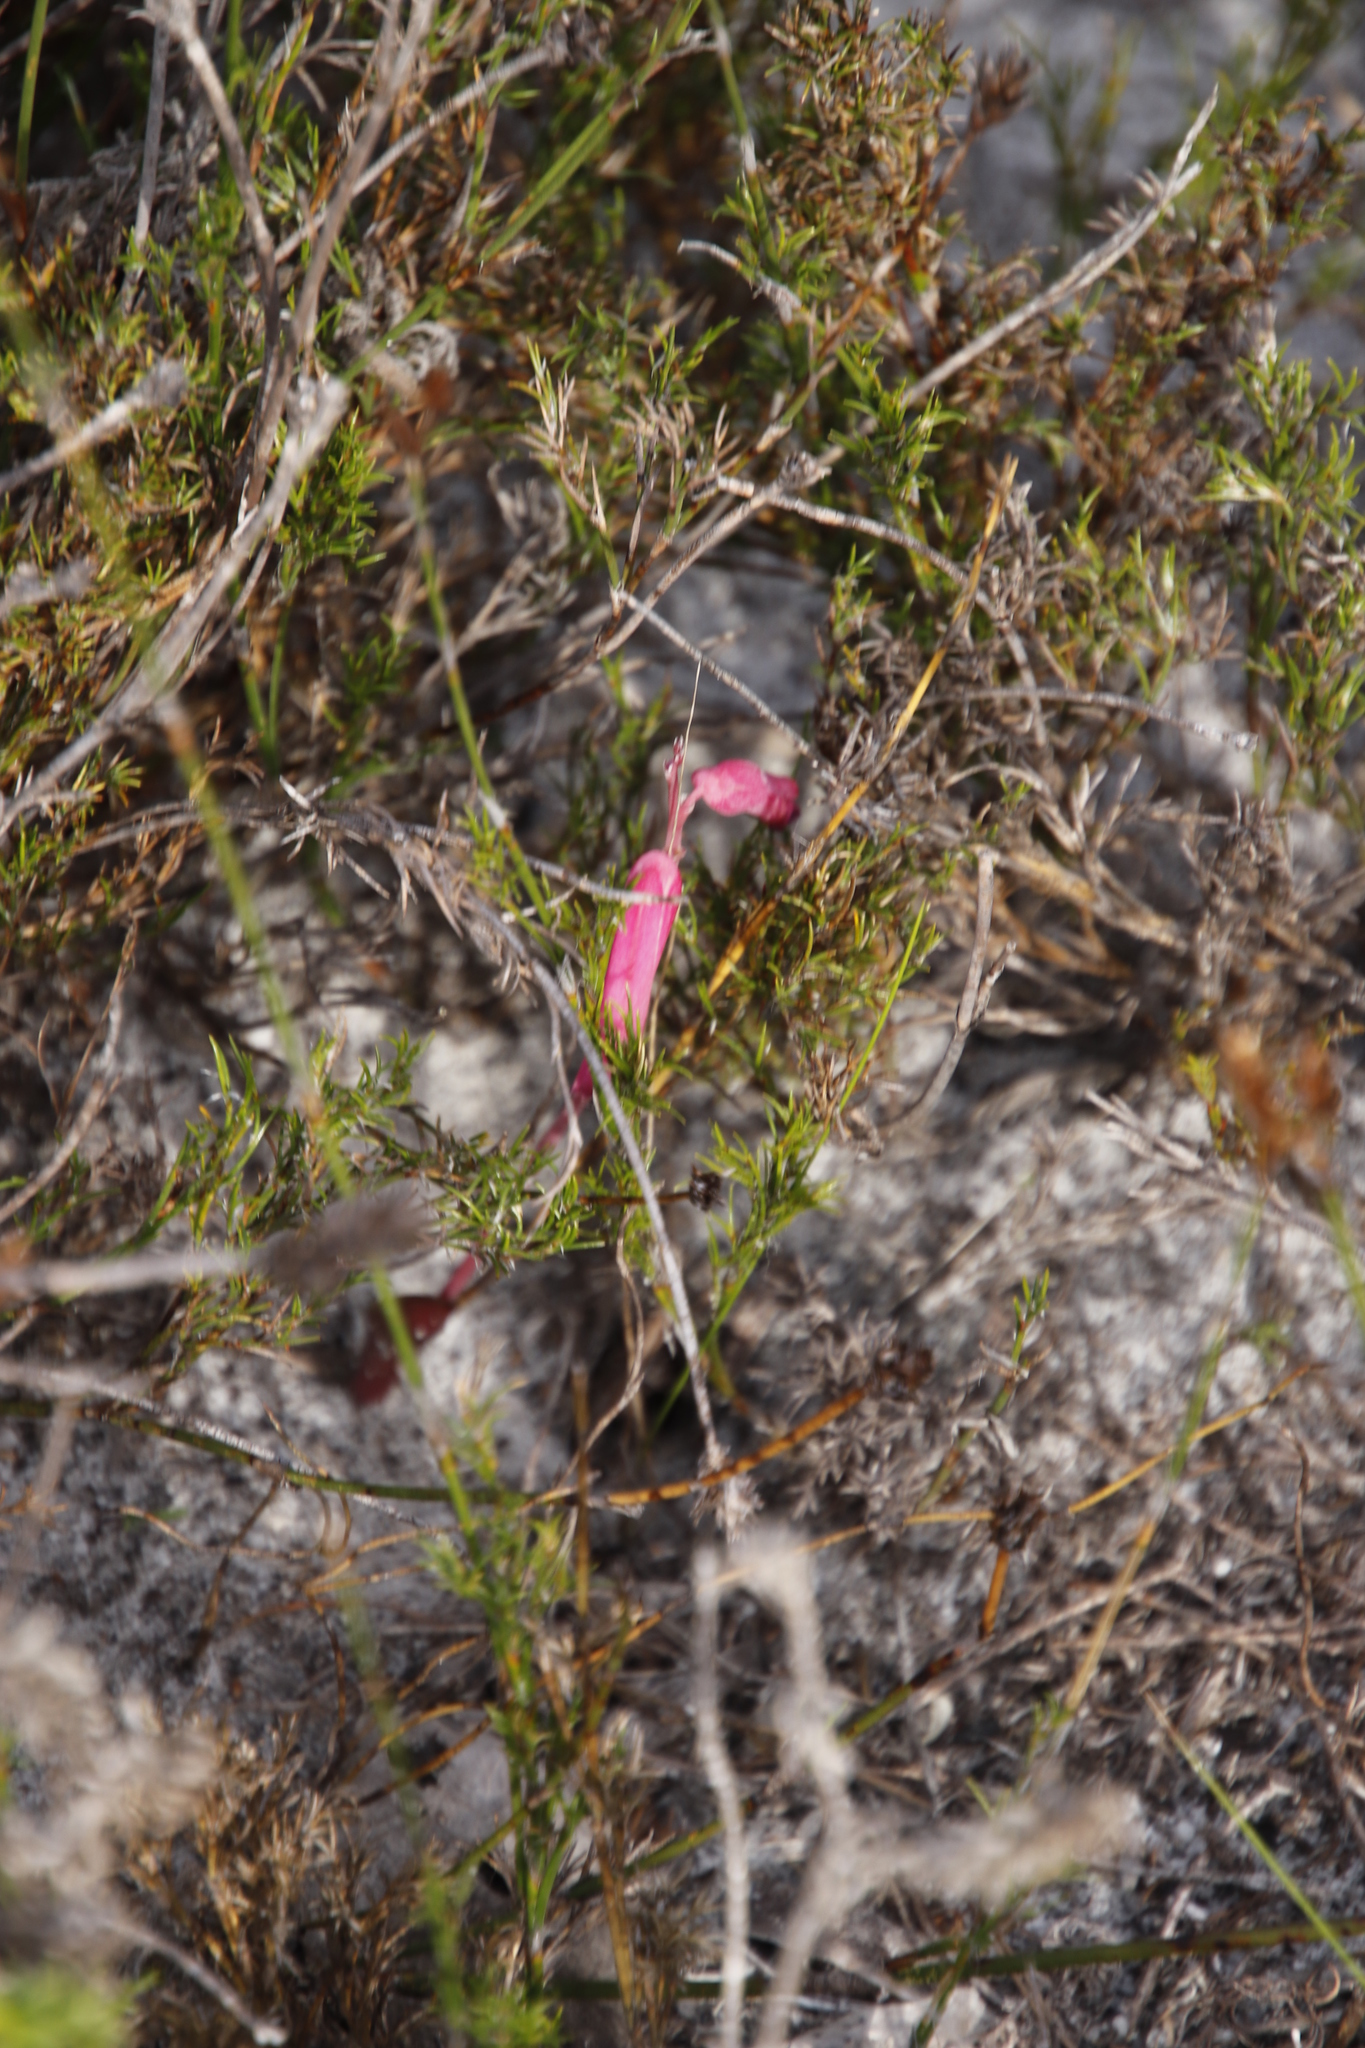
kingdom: Plantae
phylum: Tracheophyta
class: Liliopsida
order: Asparagales
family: Asparagaceae
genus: Lachenalia
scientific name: Lachenalia punctata
